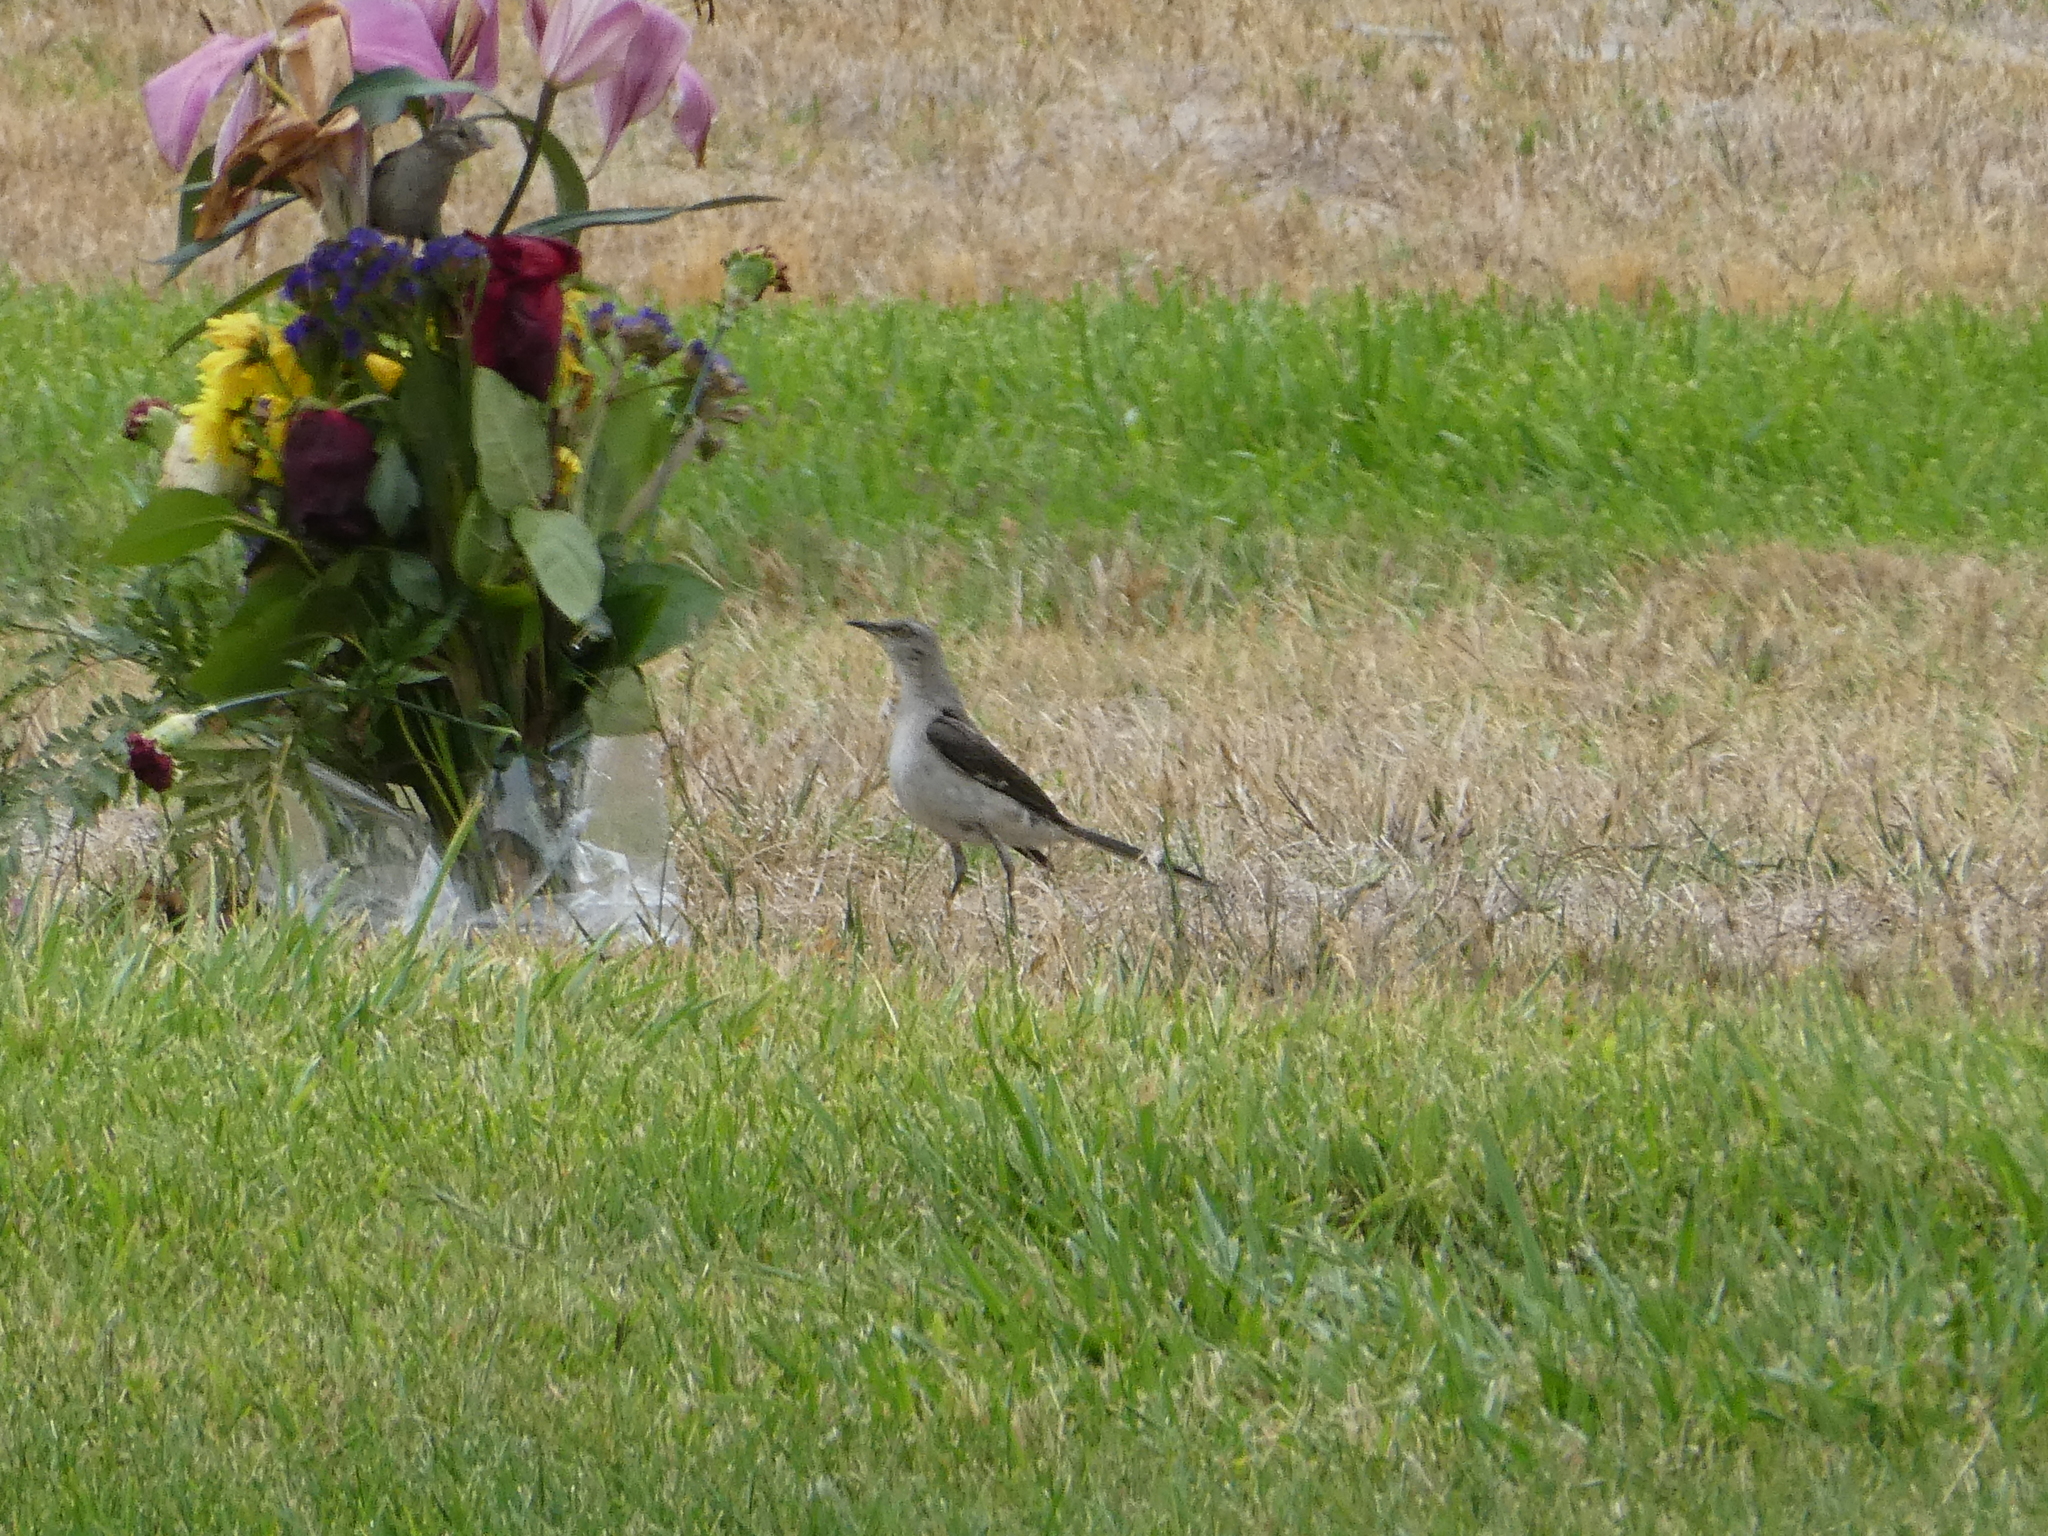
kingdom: Animalia
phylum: Chordata
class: Aves
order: Passeriformes
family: Mimidae
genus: Mimus
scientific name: Mimus polyglottos
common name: Northern mockingbird
